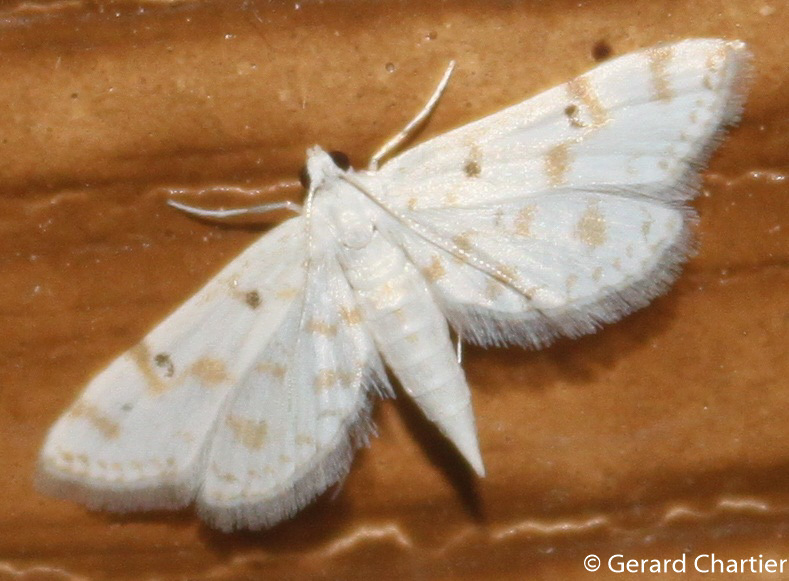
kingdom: Animalia
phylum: Arthropoda
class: Insecta
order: Lepidoptera
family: Crambidae
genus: Parapoynx
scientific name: Parapoynx stagnalis
